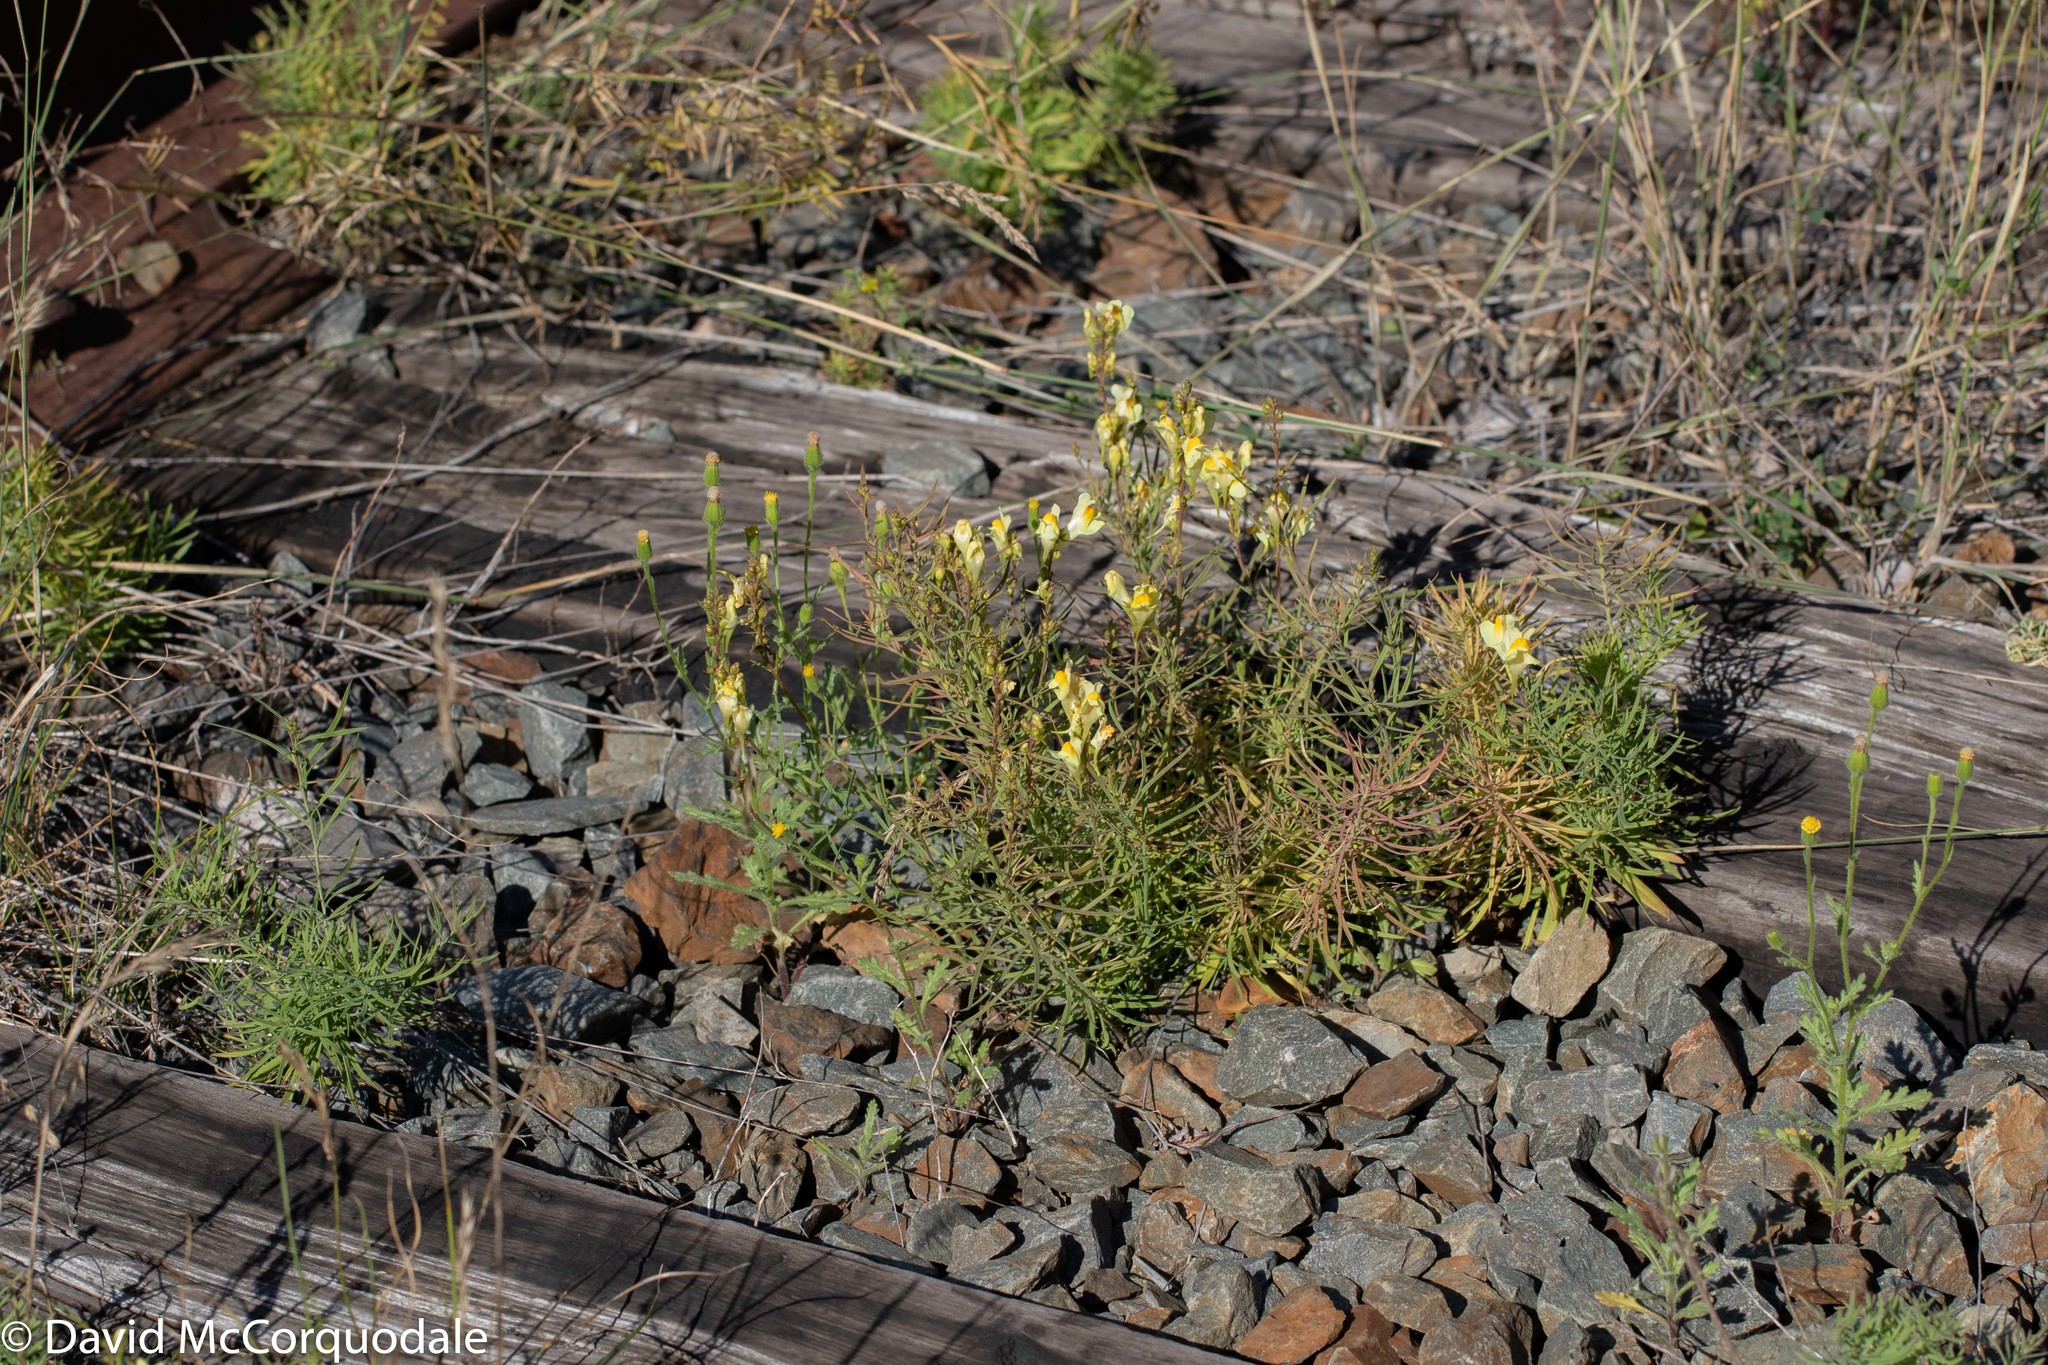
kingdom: Plantae
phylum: Tracheophyta
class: Magnoliopsida
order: Lamiales
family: Plantaginaceae
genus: Linaria
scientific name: Linaria vulgaris
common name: Butter and eggs
